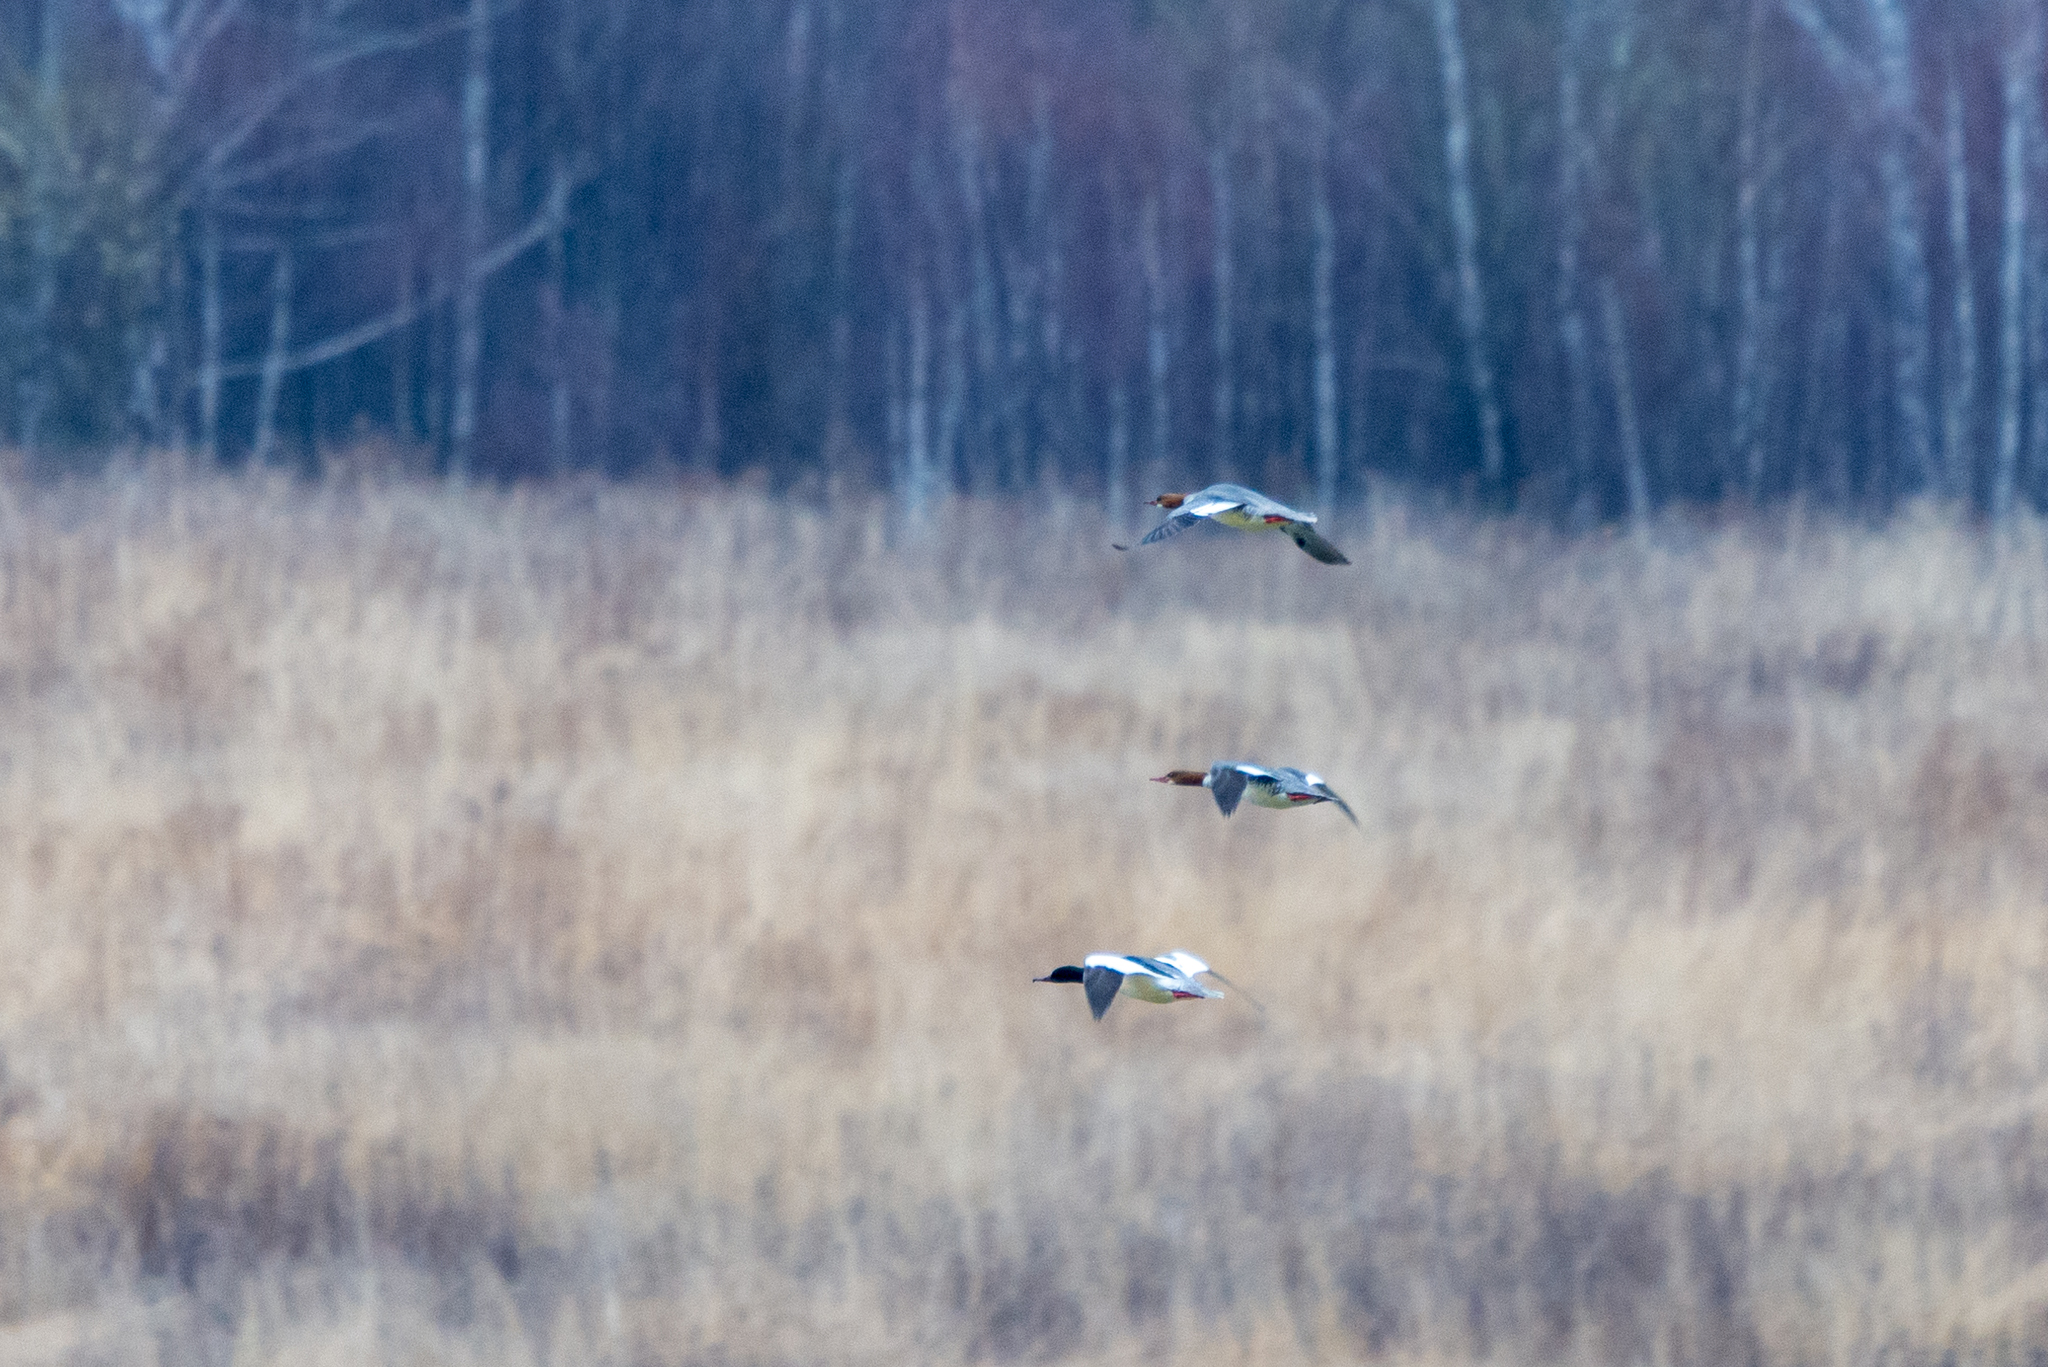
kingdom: Animalia
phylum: Chordata
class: Aves
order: Anseriformes
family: Anatidae
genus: Mergus
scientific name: Mergus merganser
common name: Common merganser
